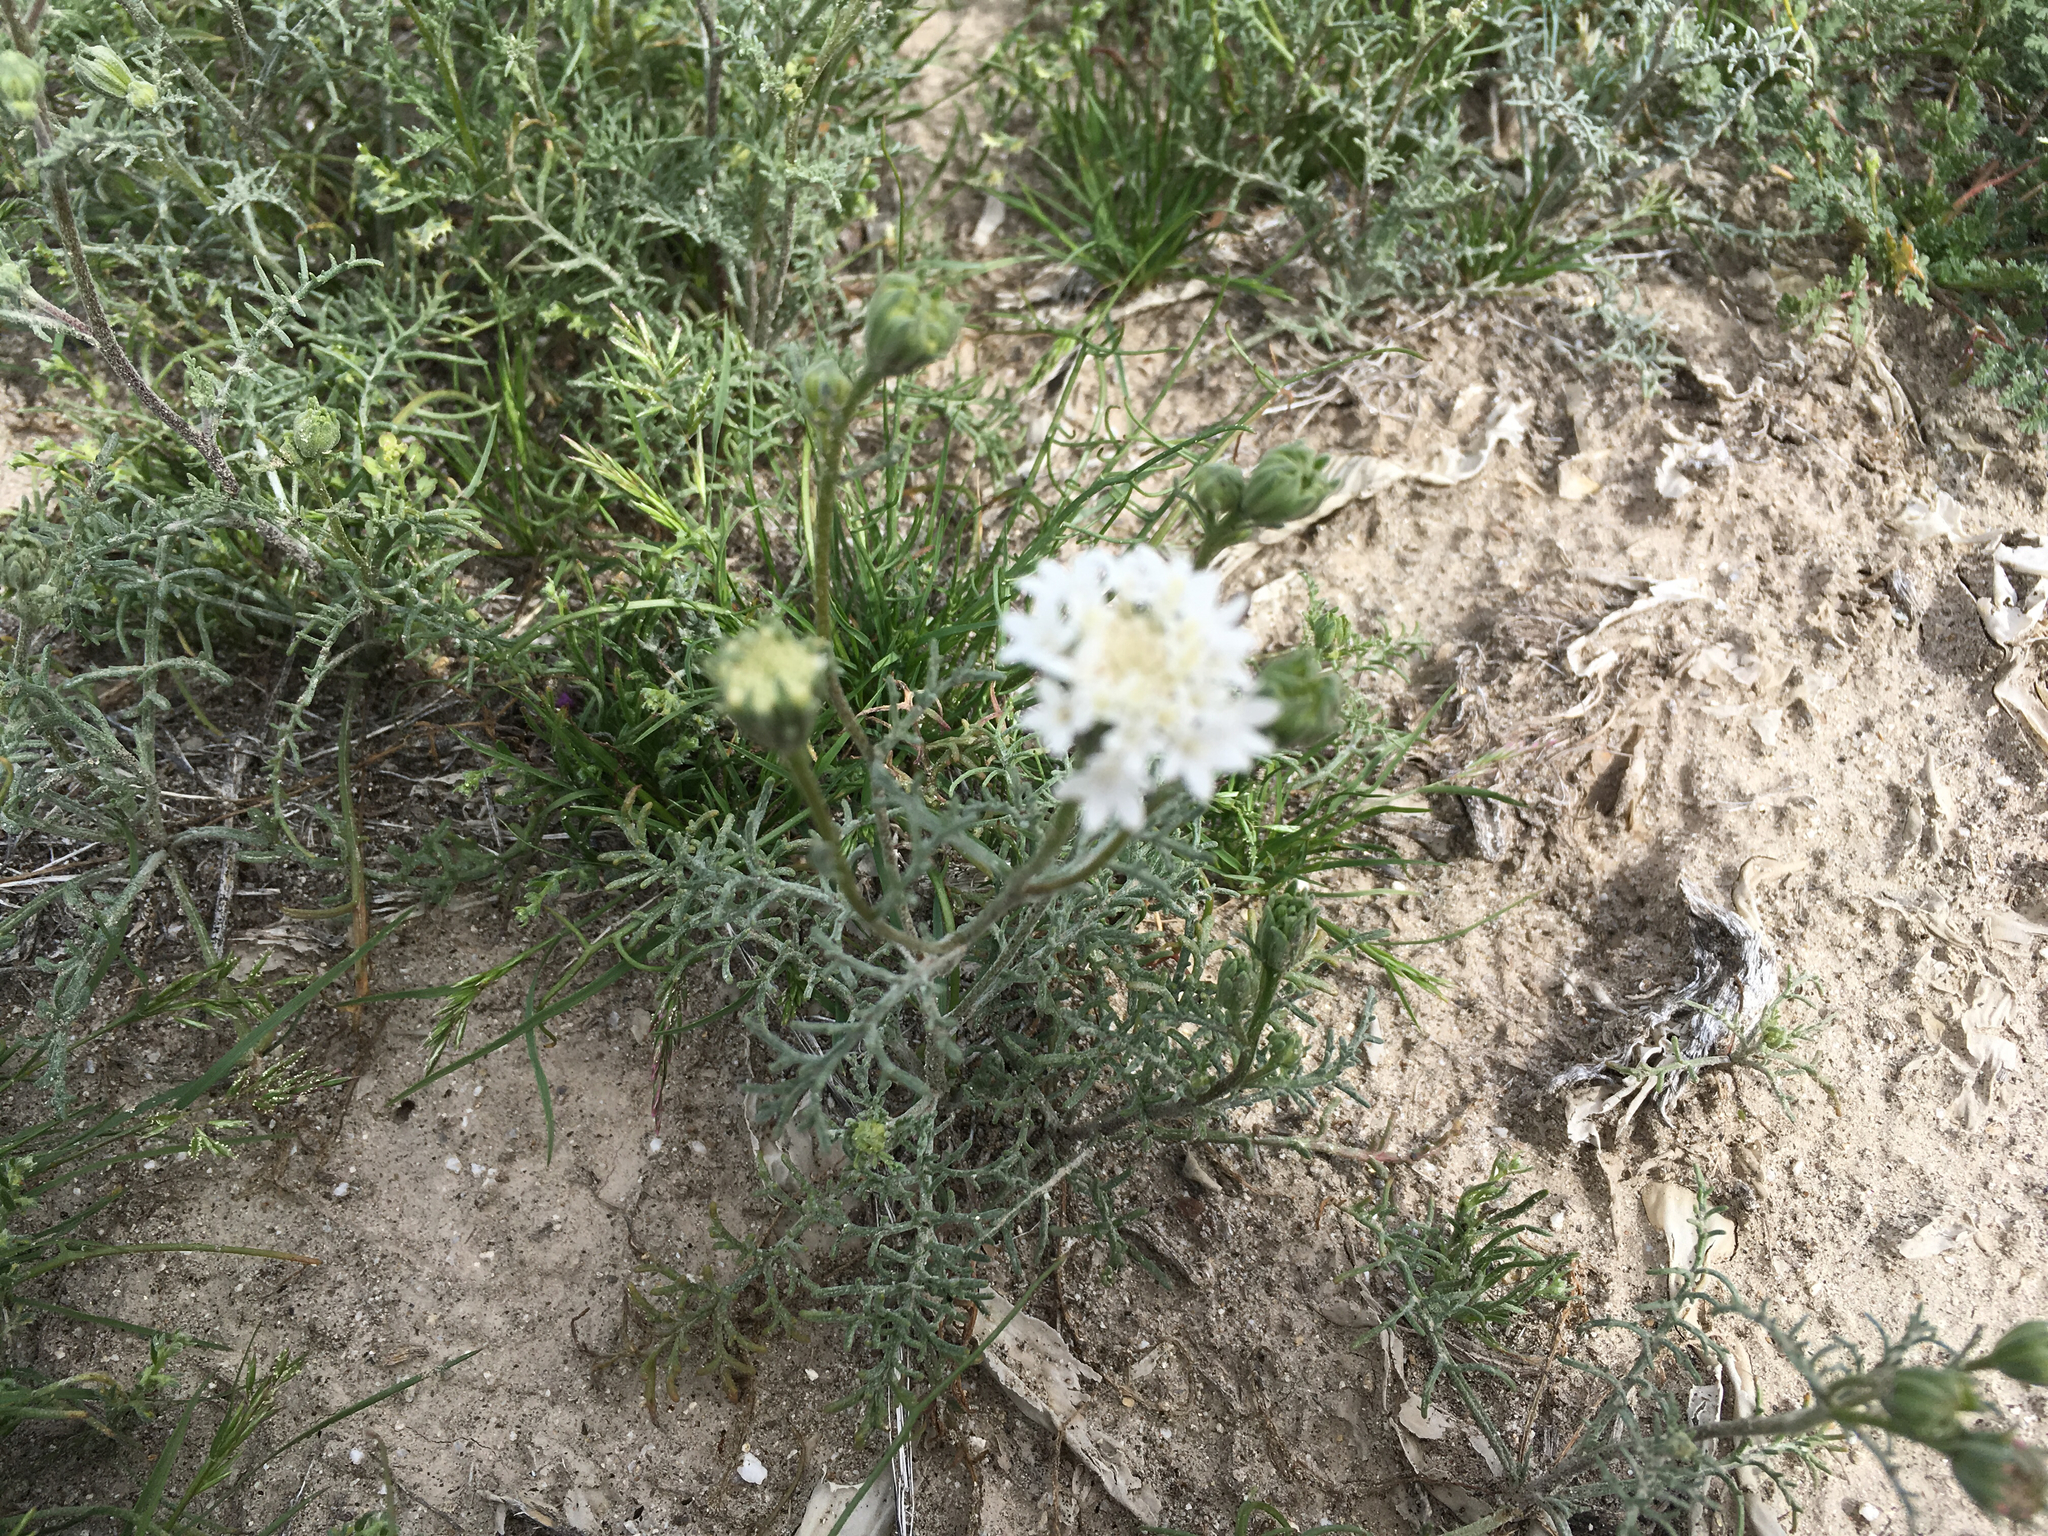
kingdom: Plantae
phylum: Tracheophyta
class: Magnoliopsida
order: Asterales
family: Asteraceae
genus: Chaenactis
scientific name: Chaenactis stevioides
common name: Desert pincushion
